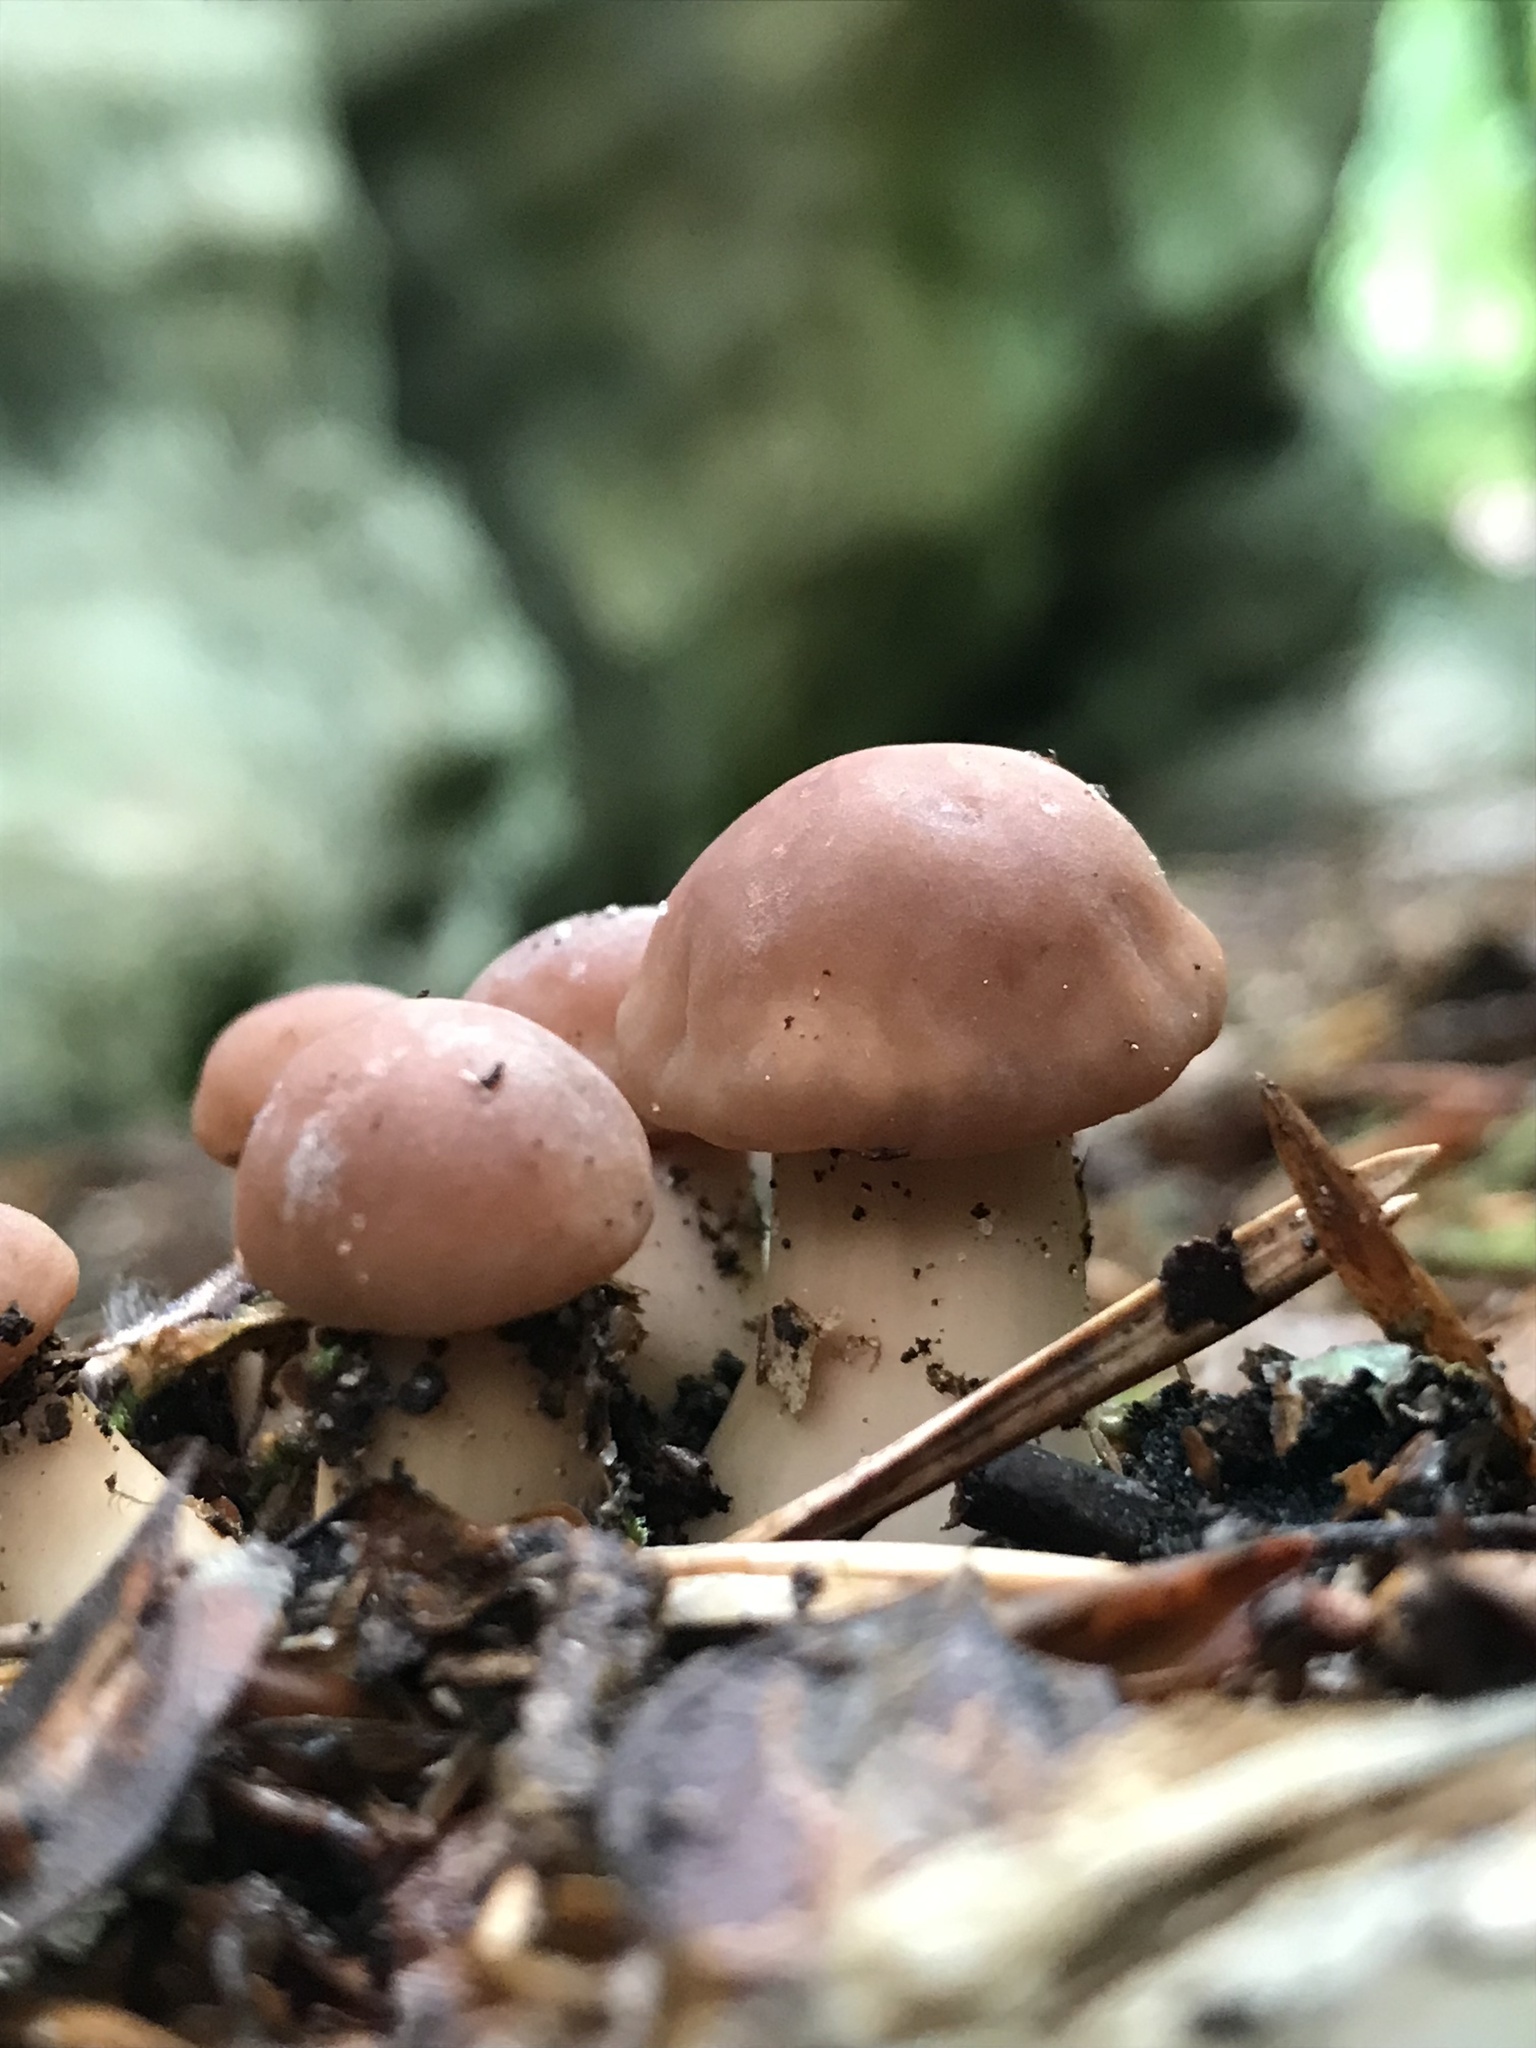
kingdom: Fungi
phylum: Basidiomycota
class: Agaricomycetes
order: Agaricales
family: Omphalotaceae
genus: Gymnopus
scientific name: Gymnopus fusipes
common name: Spindle shank
